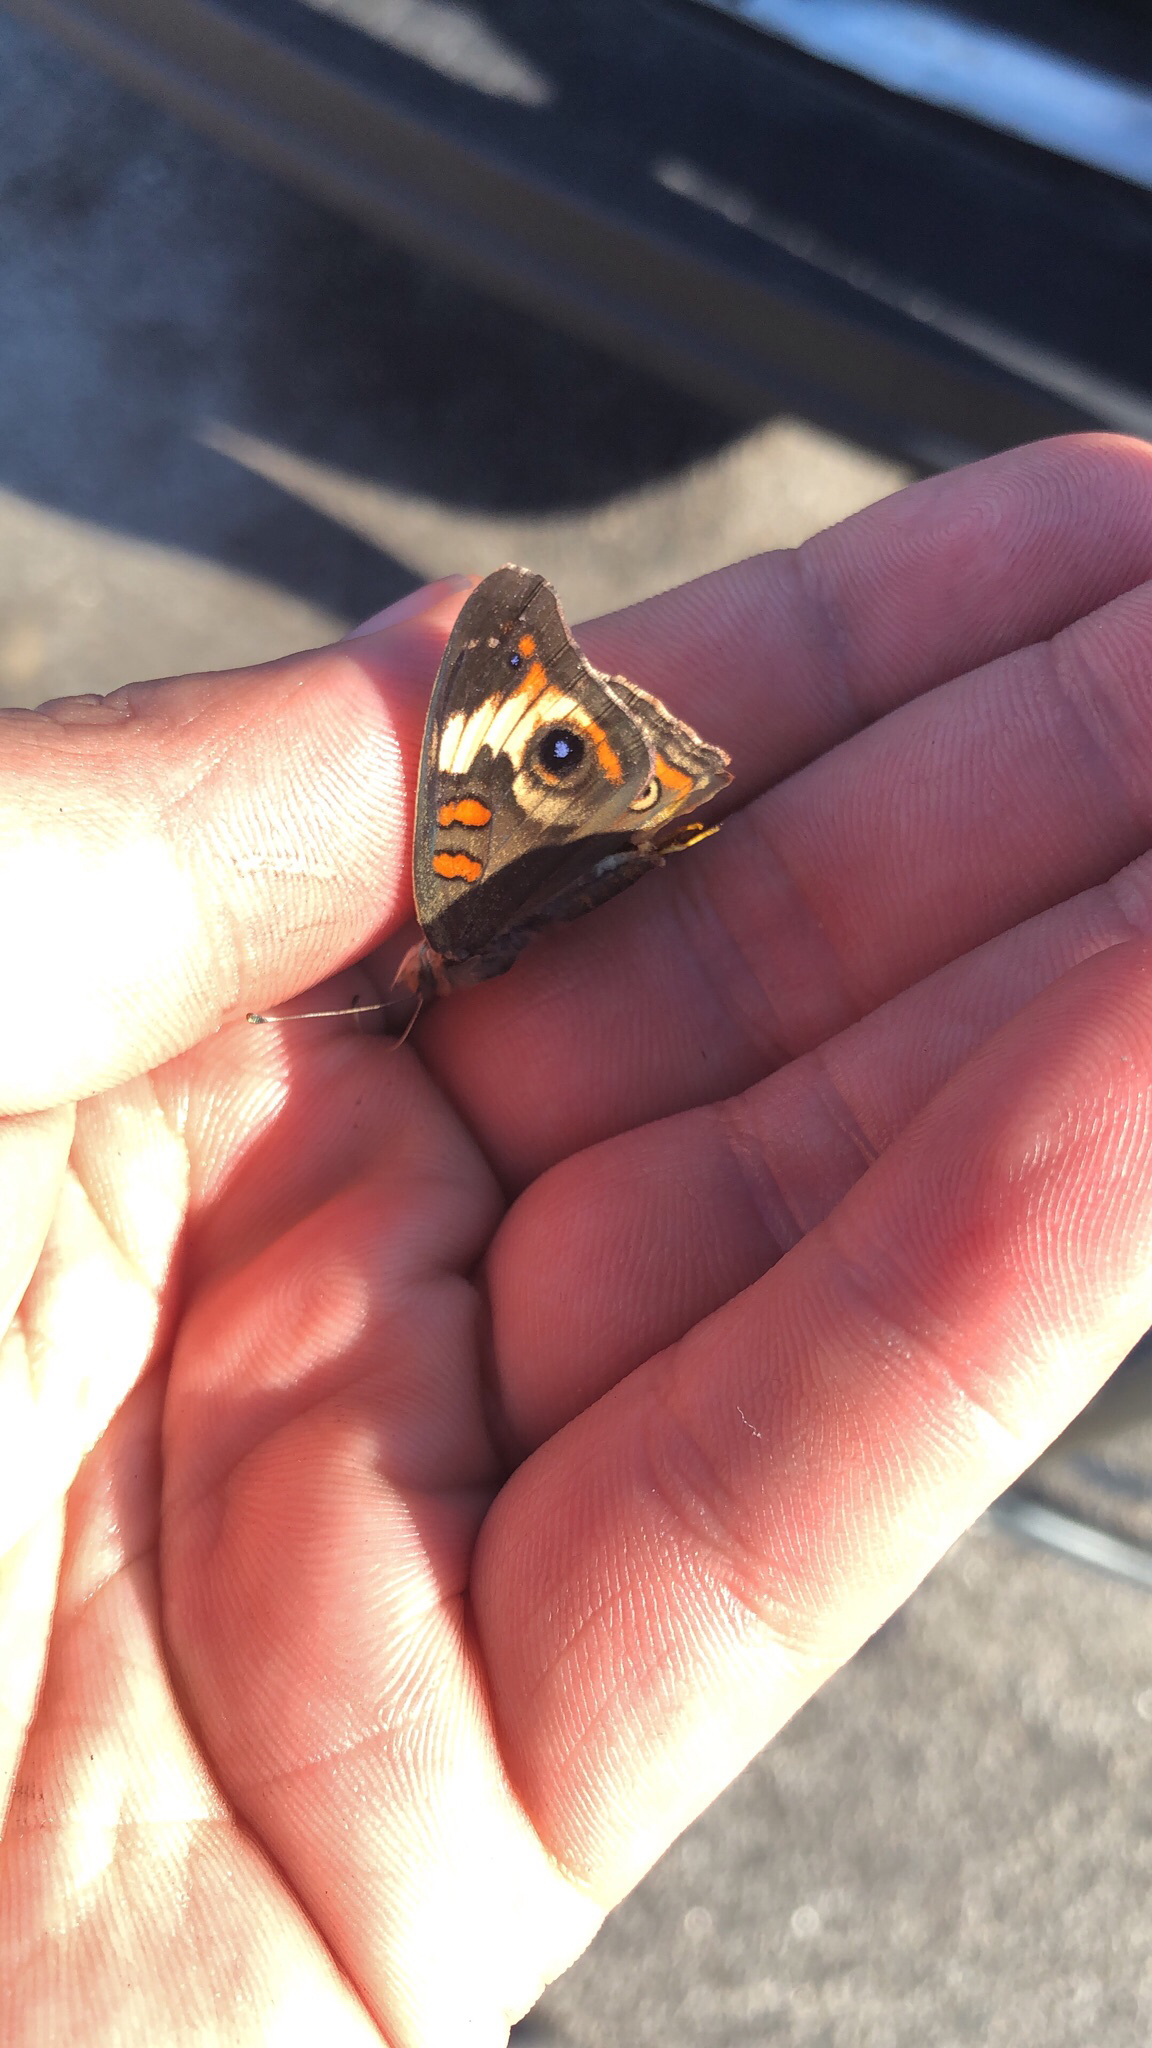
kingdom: Animalia
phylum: Arthropoda
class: Insecta
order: Lepidoptera
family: Nymphalidae
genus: Junonia
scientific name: Junonia coenia
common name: Common buckeye
